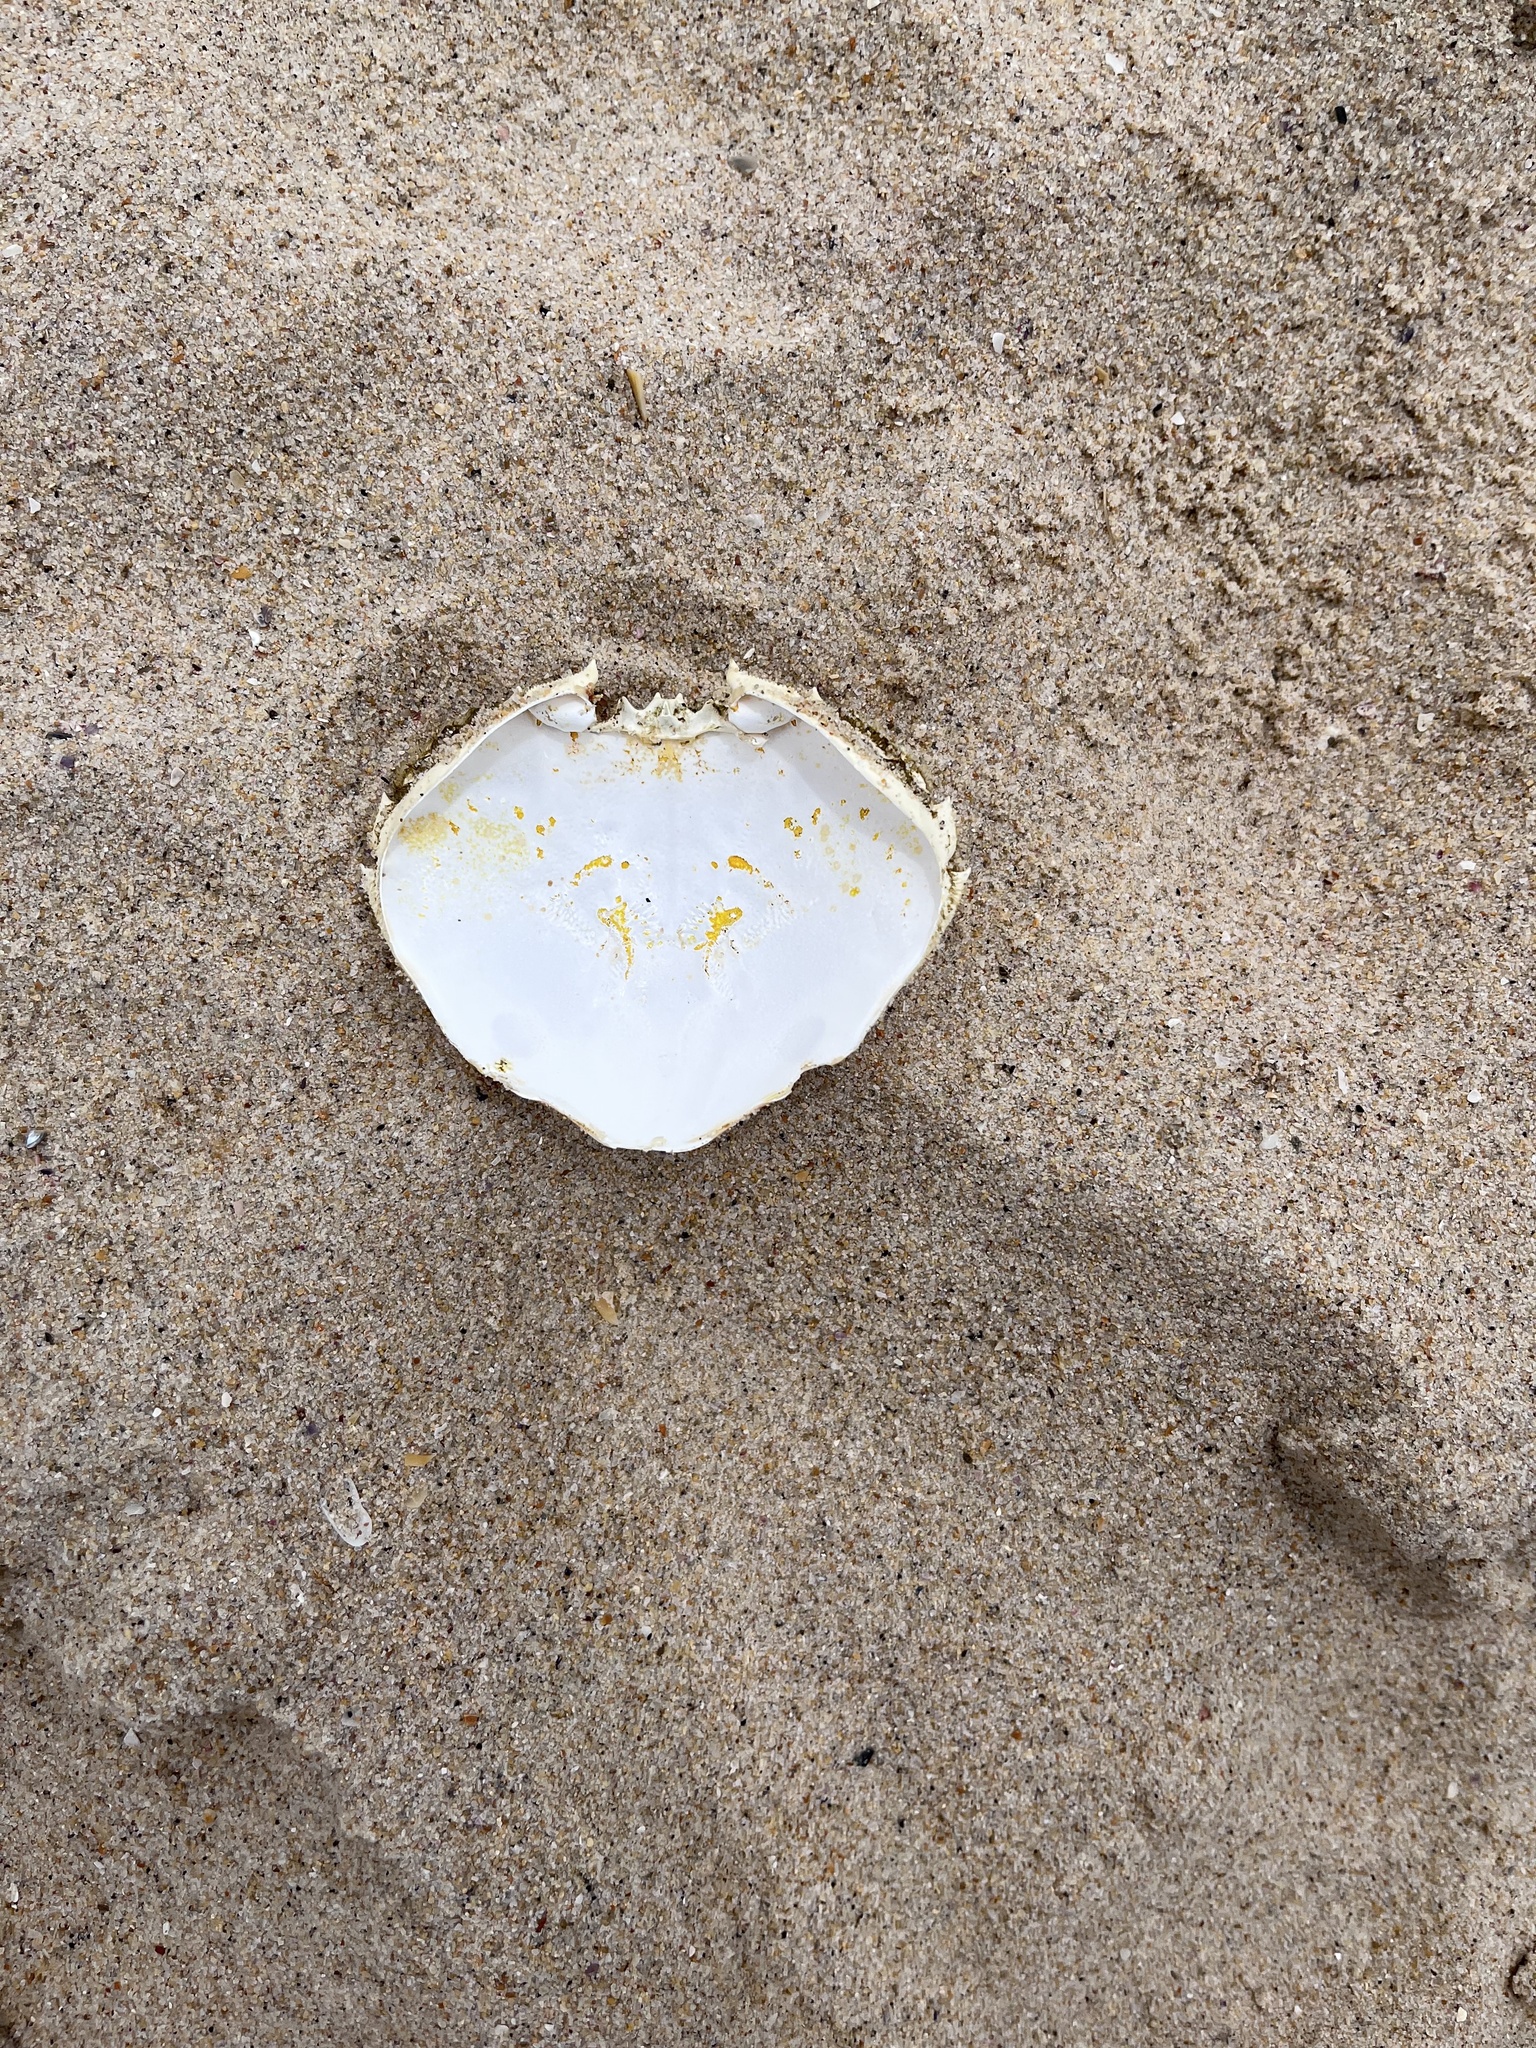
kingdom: Animalia
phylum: Arthropoda
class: Malacostraca
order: Decapoda
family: Ovalipidae
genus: Ovalipes
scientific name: Ovalipes australiensis
